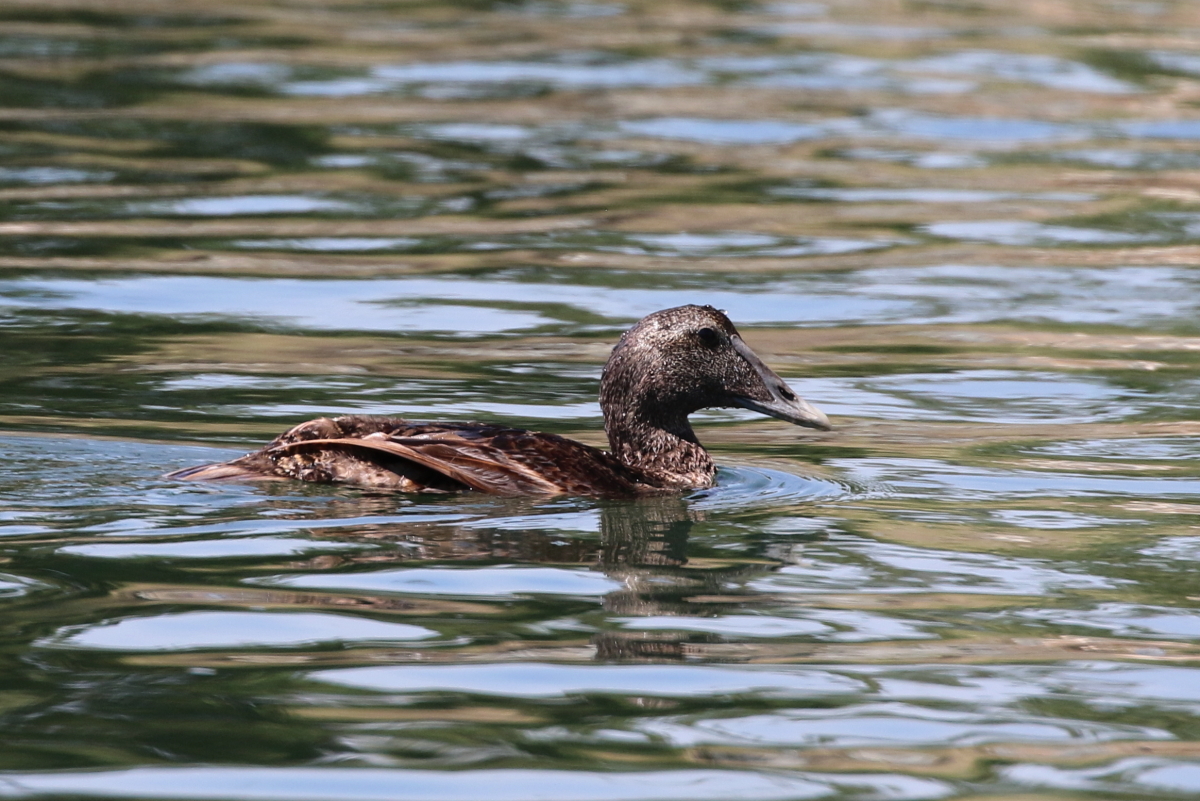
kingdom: Animalia
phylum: Chordata
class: Aves
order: Anseriformes
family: Anatidae
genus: Somateria
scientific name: Somateria mollissima
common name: Common eider
